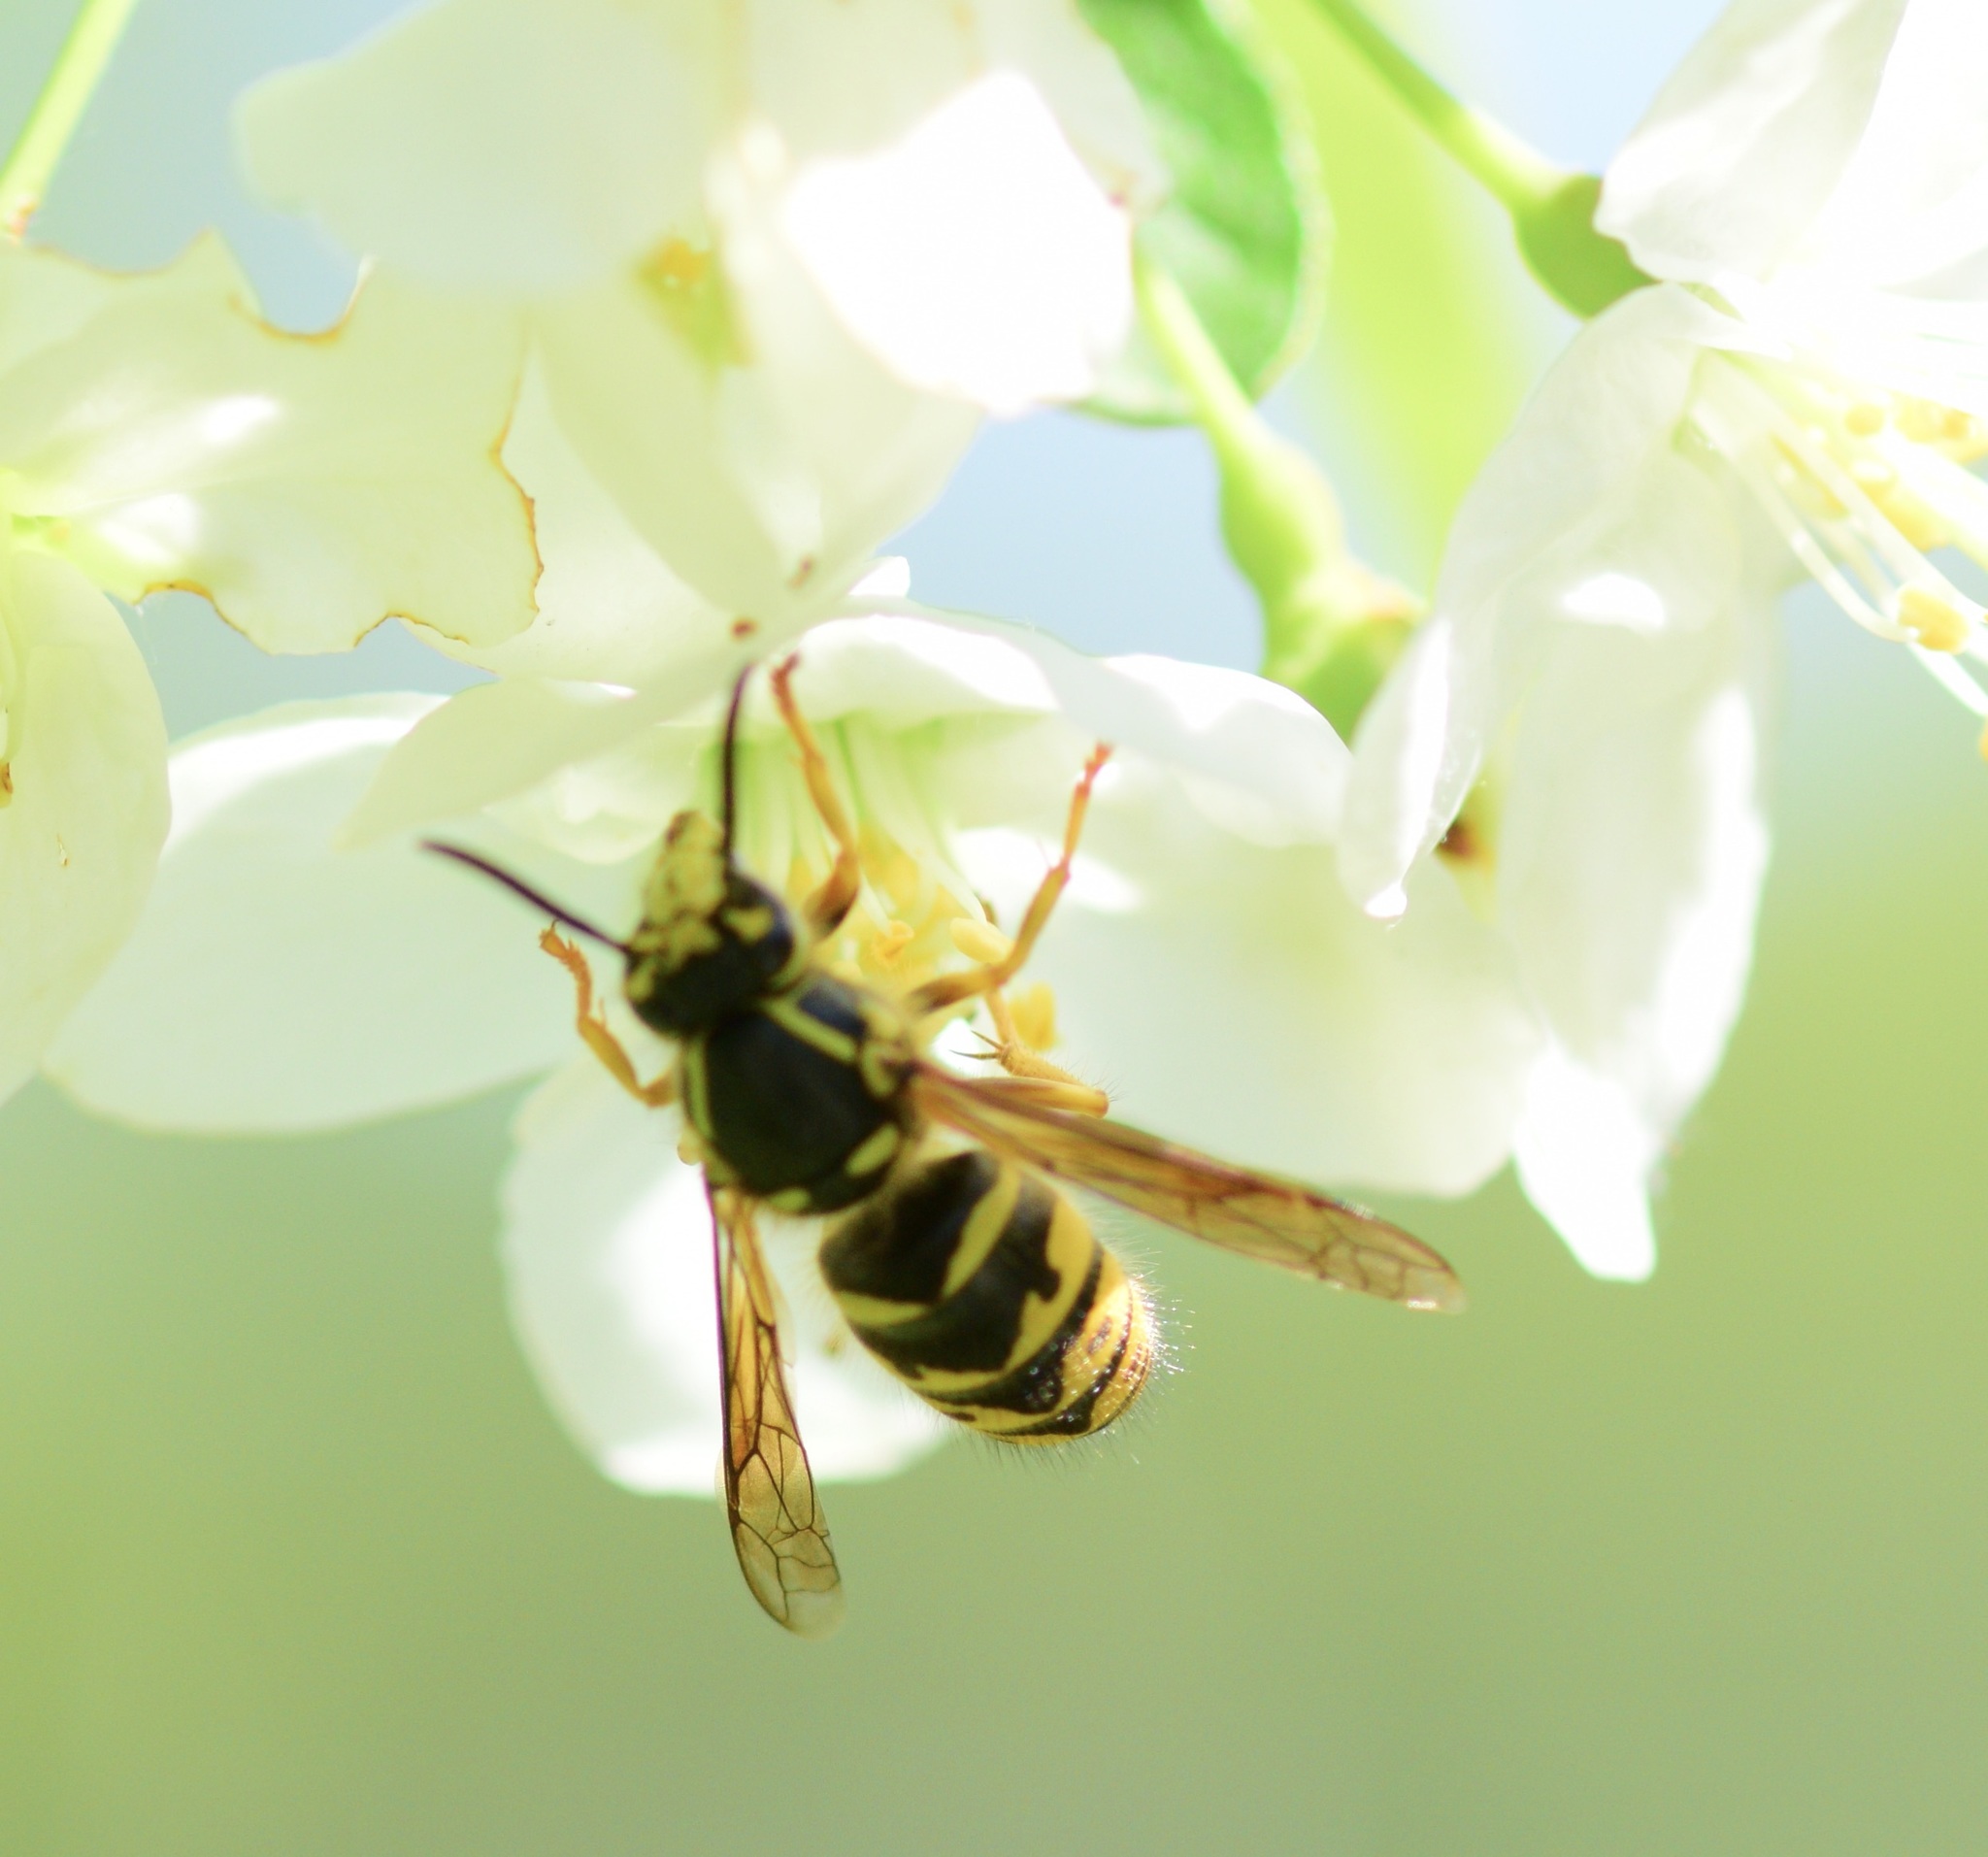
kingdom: Animalia
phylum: Arthropoda
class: Insecta
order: Hymenoptera
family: Vespidae
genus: Dolichovespula
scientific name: Dolichovespula arenaria
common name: Aerial yellowjacket
